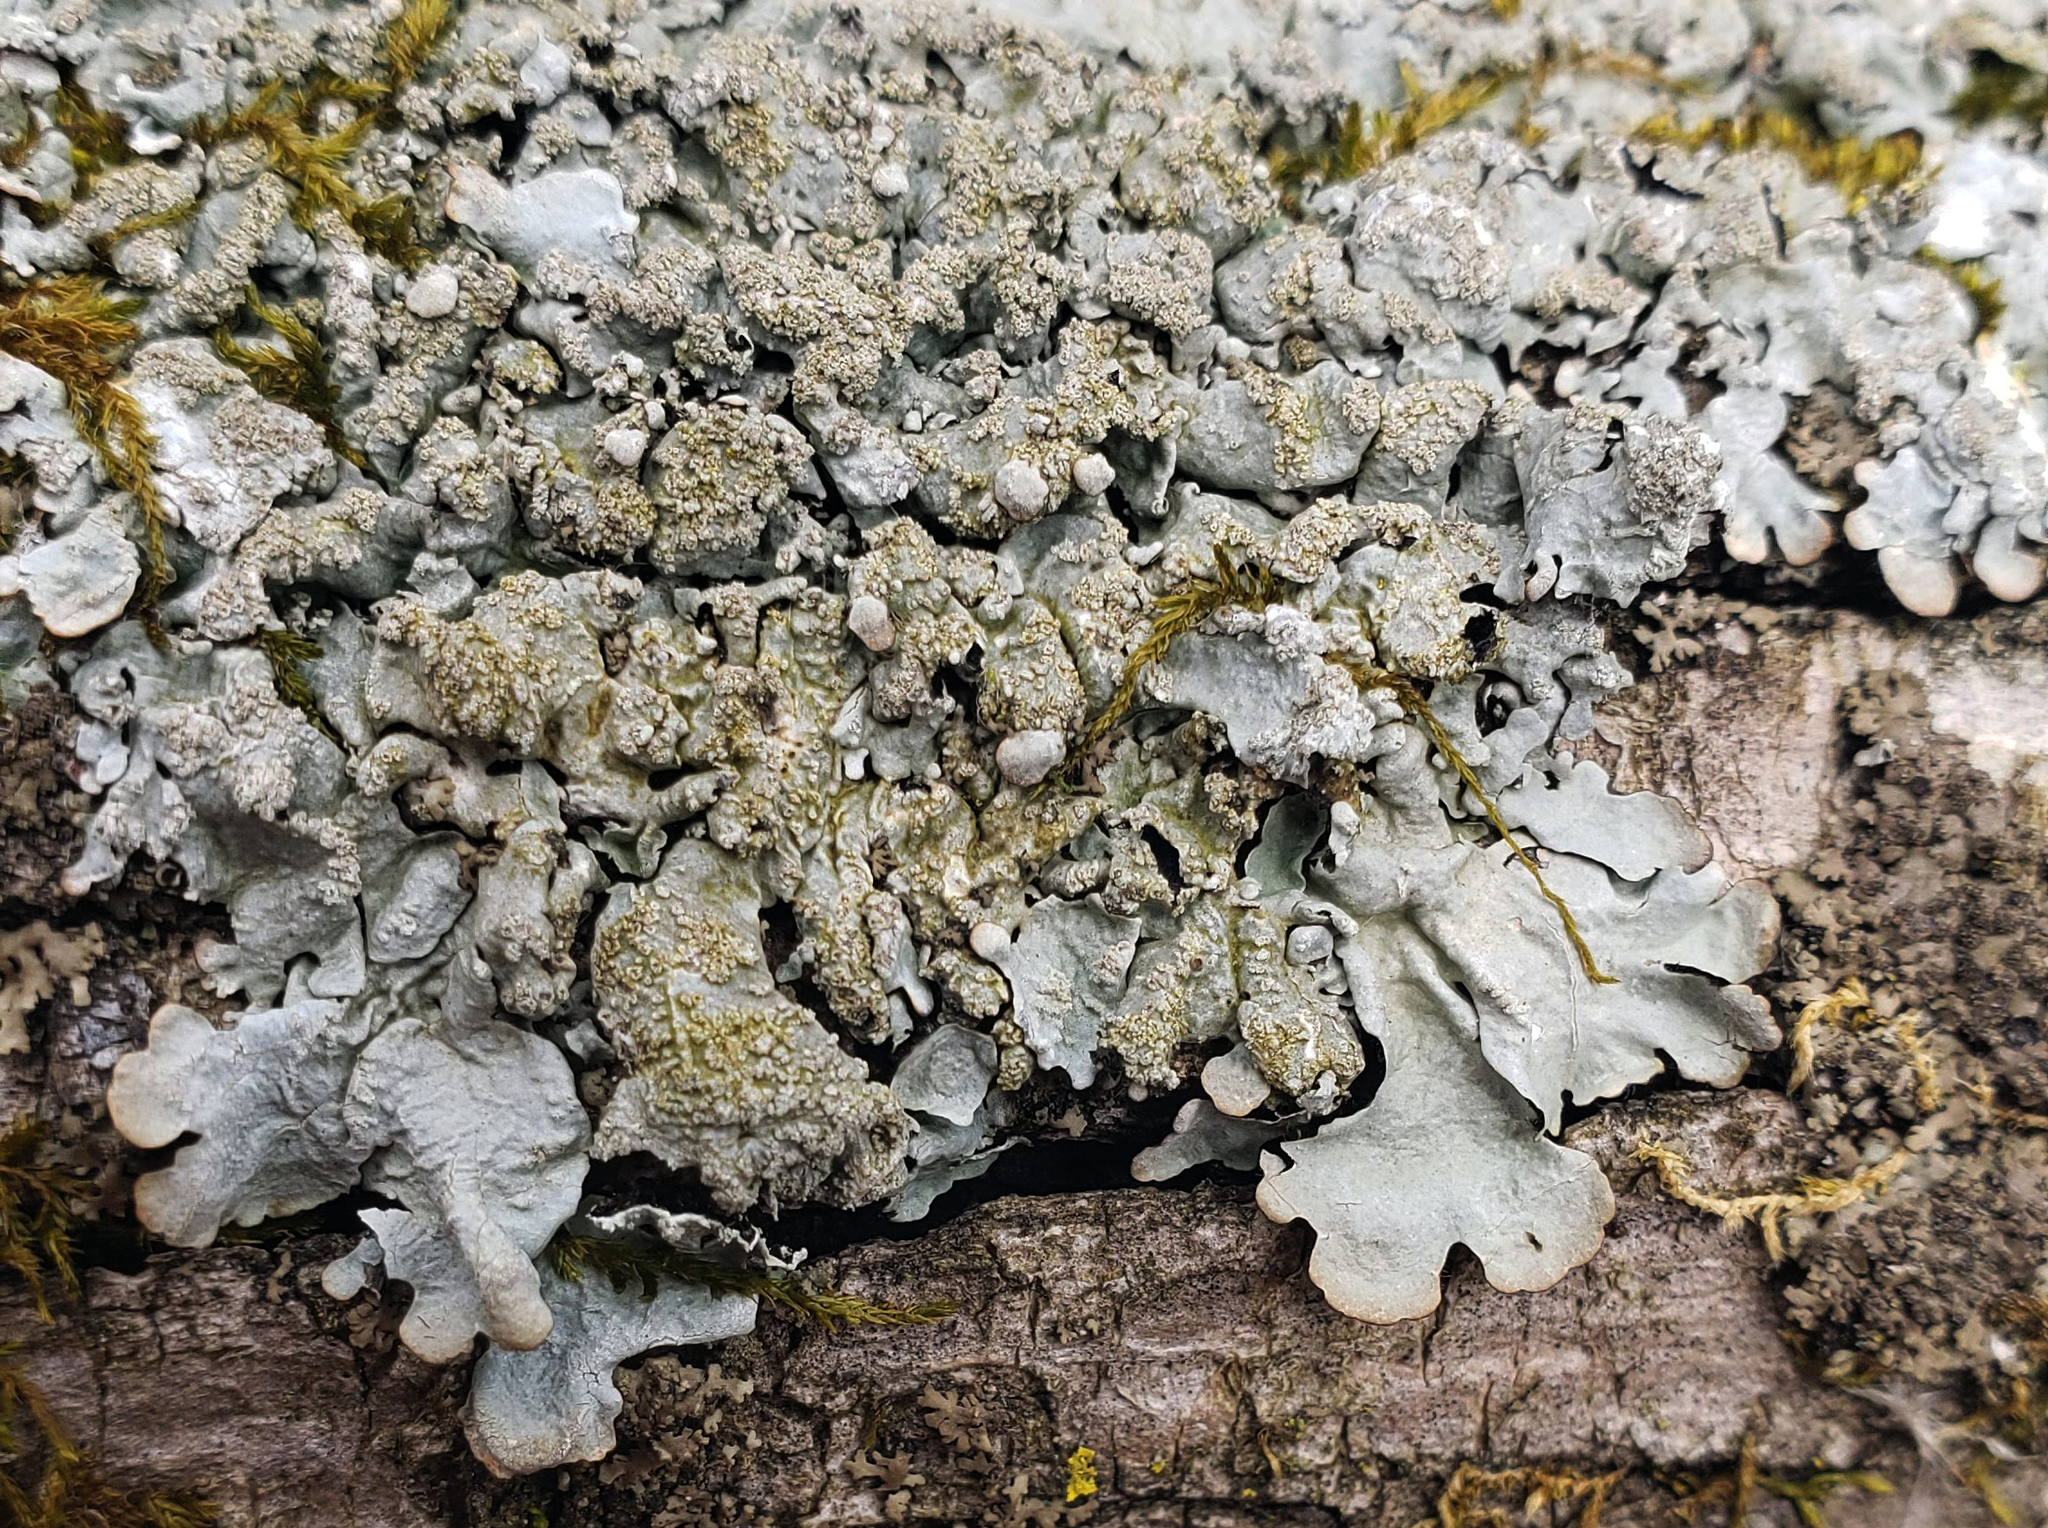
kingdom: Fungi
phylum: Ascomycota
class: Lecanoromycetes
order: Lecanorales
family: Parmeliaceae
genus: Myelochroa
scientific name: Myelochroa aurulenta
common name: Powdery axil-bristle lichen
